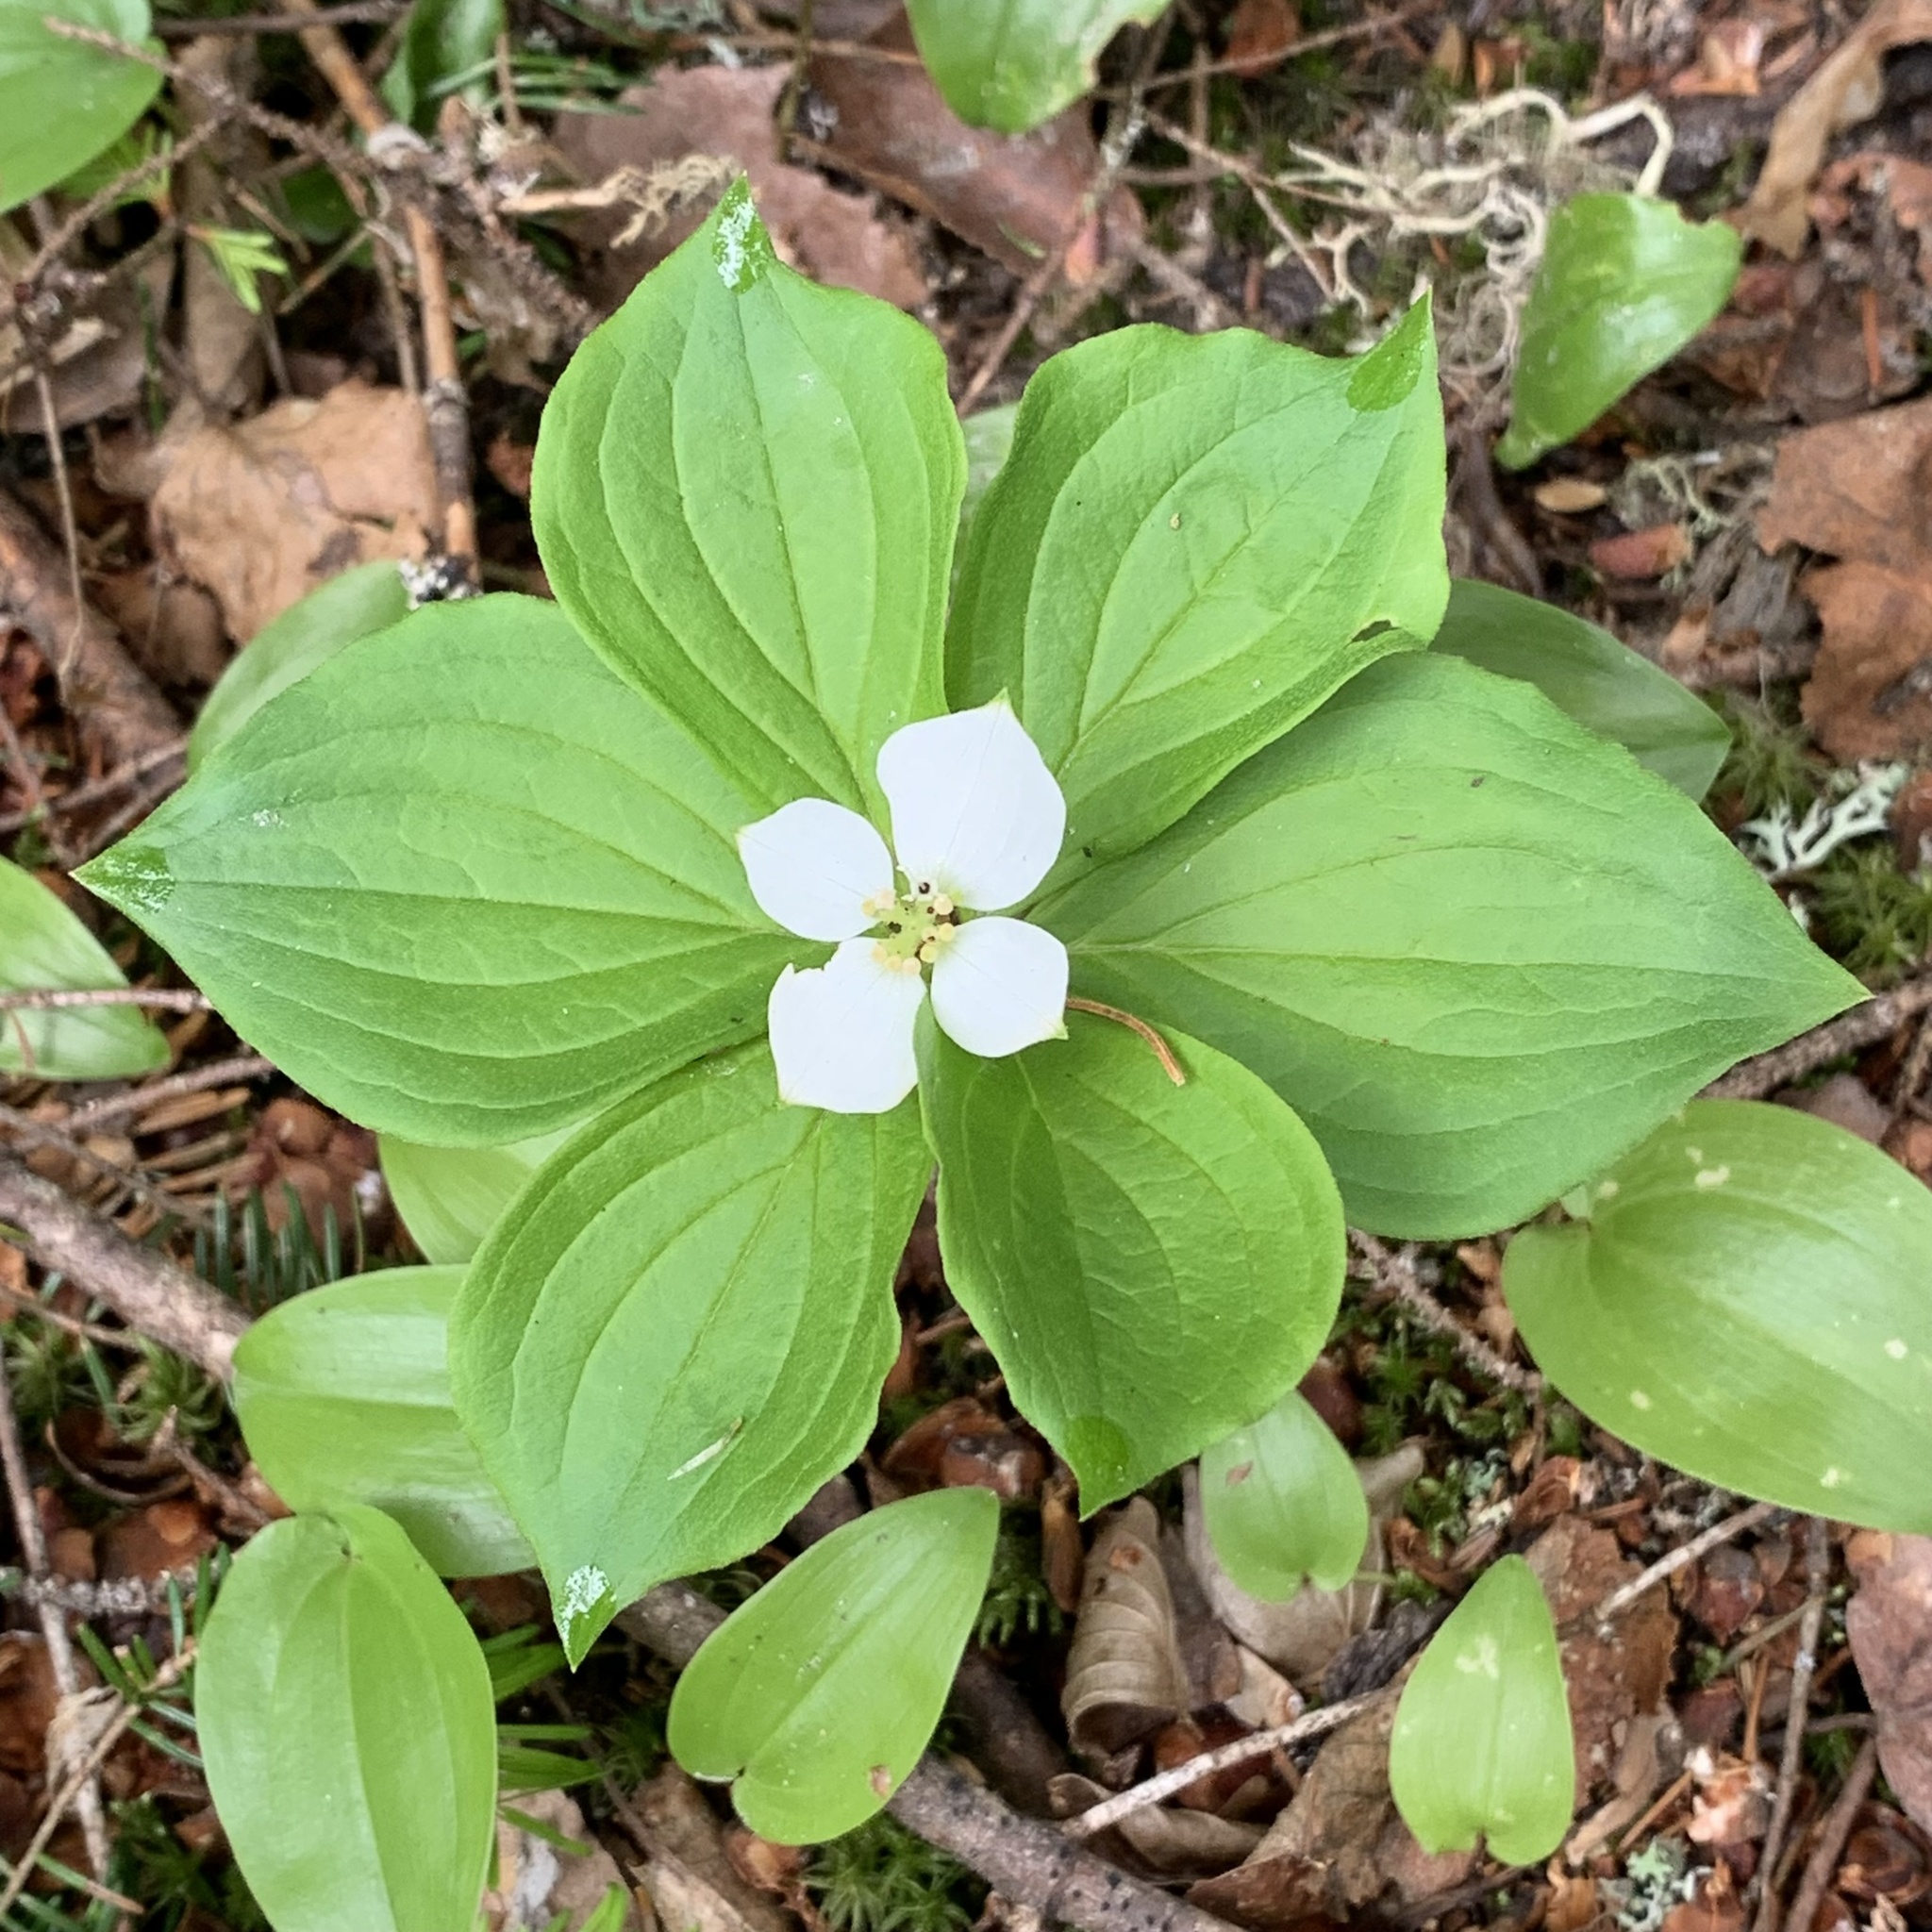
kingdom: Plantae
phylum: Tracheophyta
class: Magnoliopsida
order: Cornales
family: Cornaceae
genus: Cornus
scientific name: Cornus canadensis
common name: Creeping dogwood
